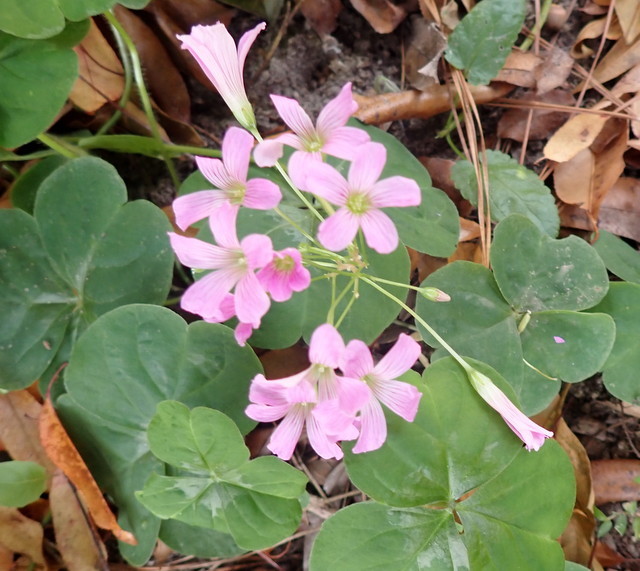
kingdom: Plantae
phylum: Tracheophyta
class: Magnoliopsida
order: Oxalidales
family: Oxalidaceae
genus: Oxalis
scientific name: Oxalis debilis
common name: Large-flowered pink-sorrel
